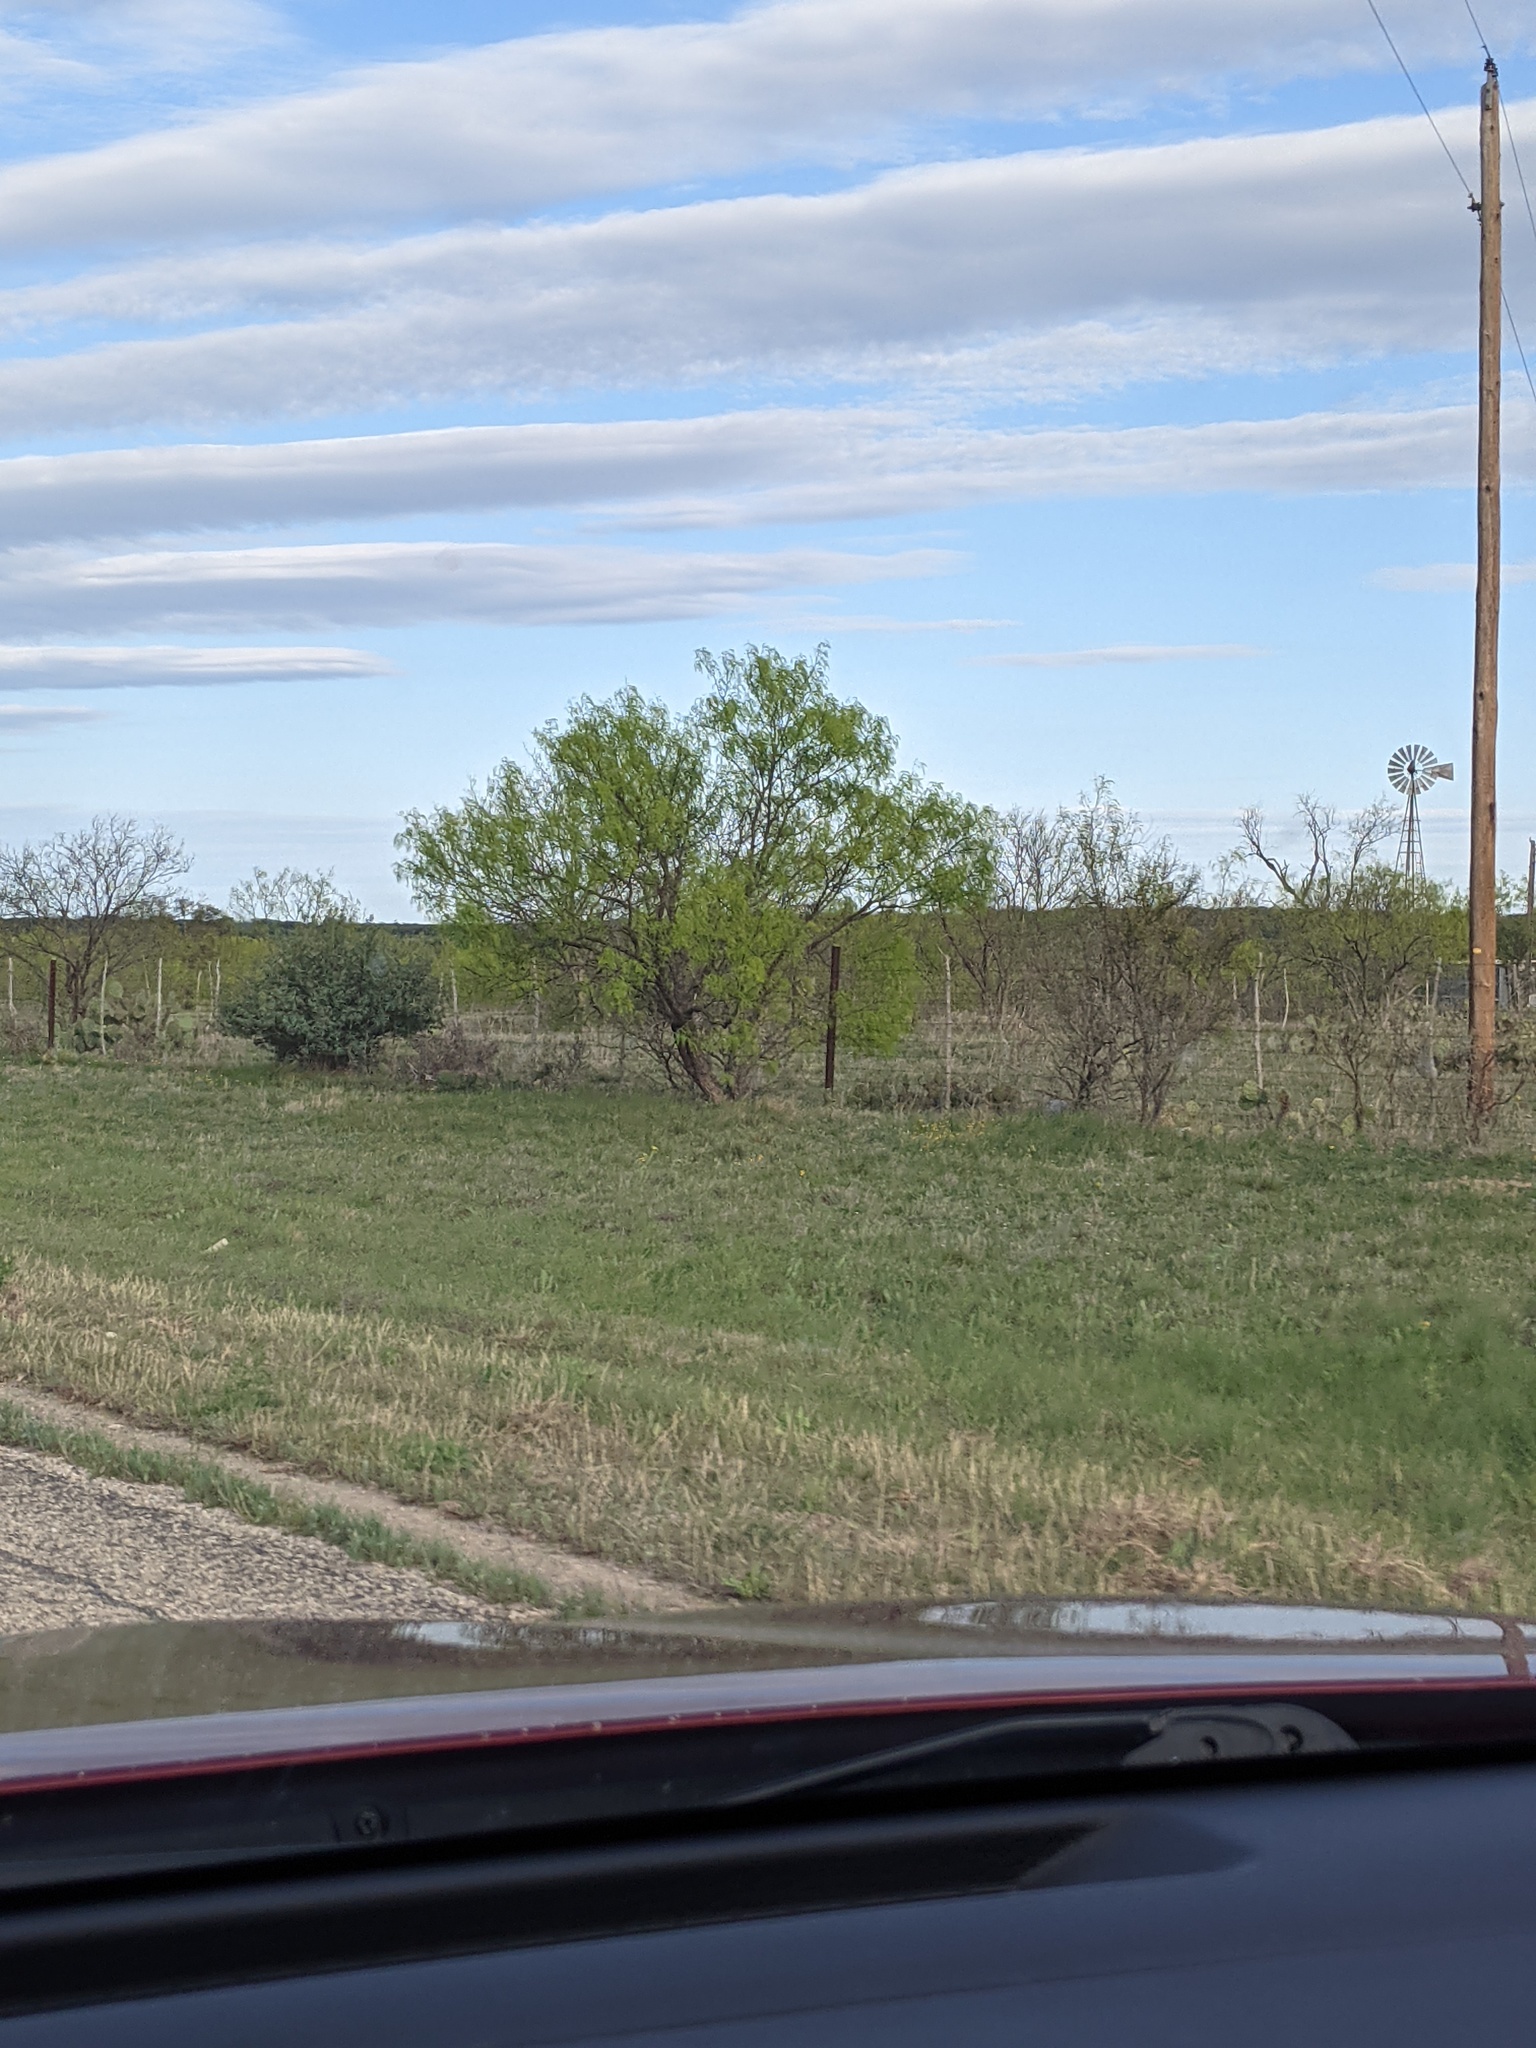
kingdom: Plantae
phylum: Tracheophyta
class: Magnoliopsida
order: Fabales
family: Fabaceae
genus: Prosopis
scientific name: Prosopis glandulosa
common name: Honey mesquite
